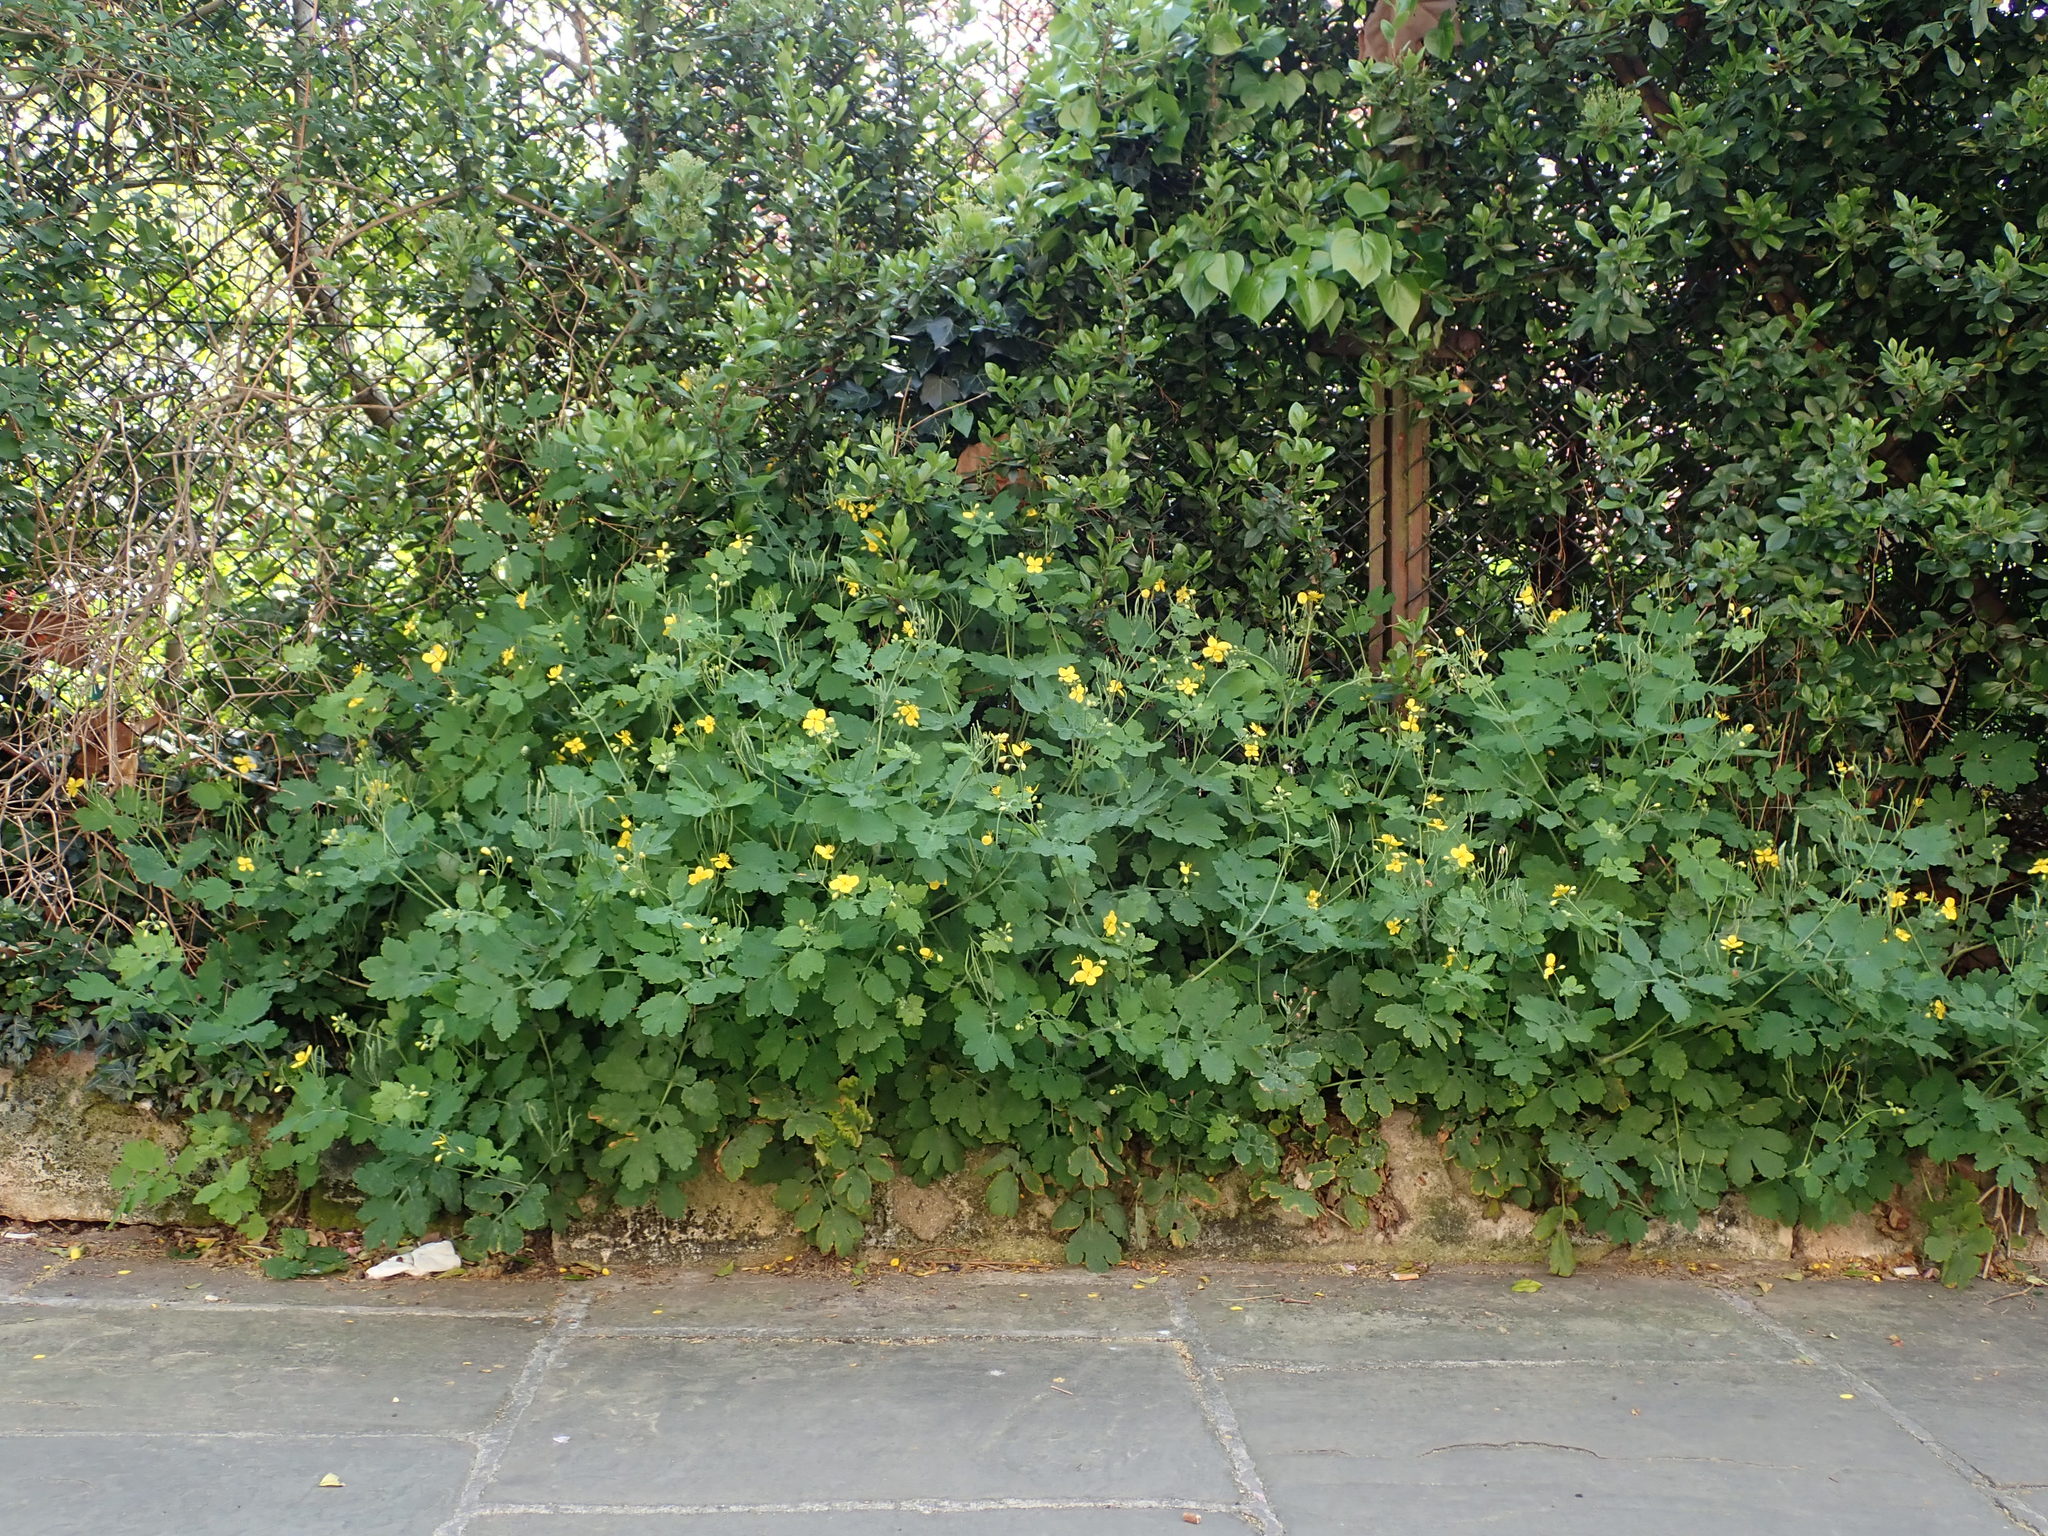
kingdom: Plantae
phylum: Tracheophyta
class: Magnoliopsida
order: Ranunculales
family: Papaveraceae
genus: Chelidonium
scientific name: Chelidonium majus
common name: Greater celandine
